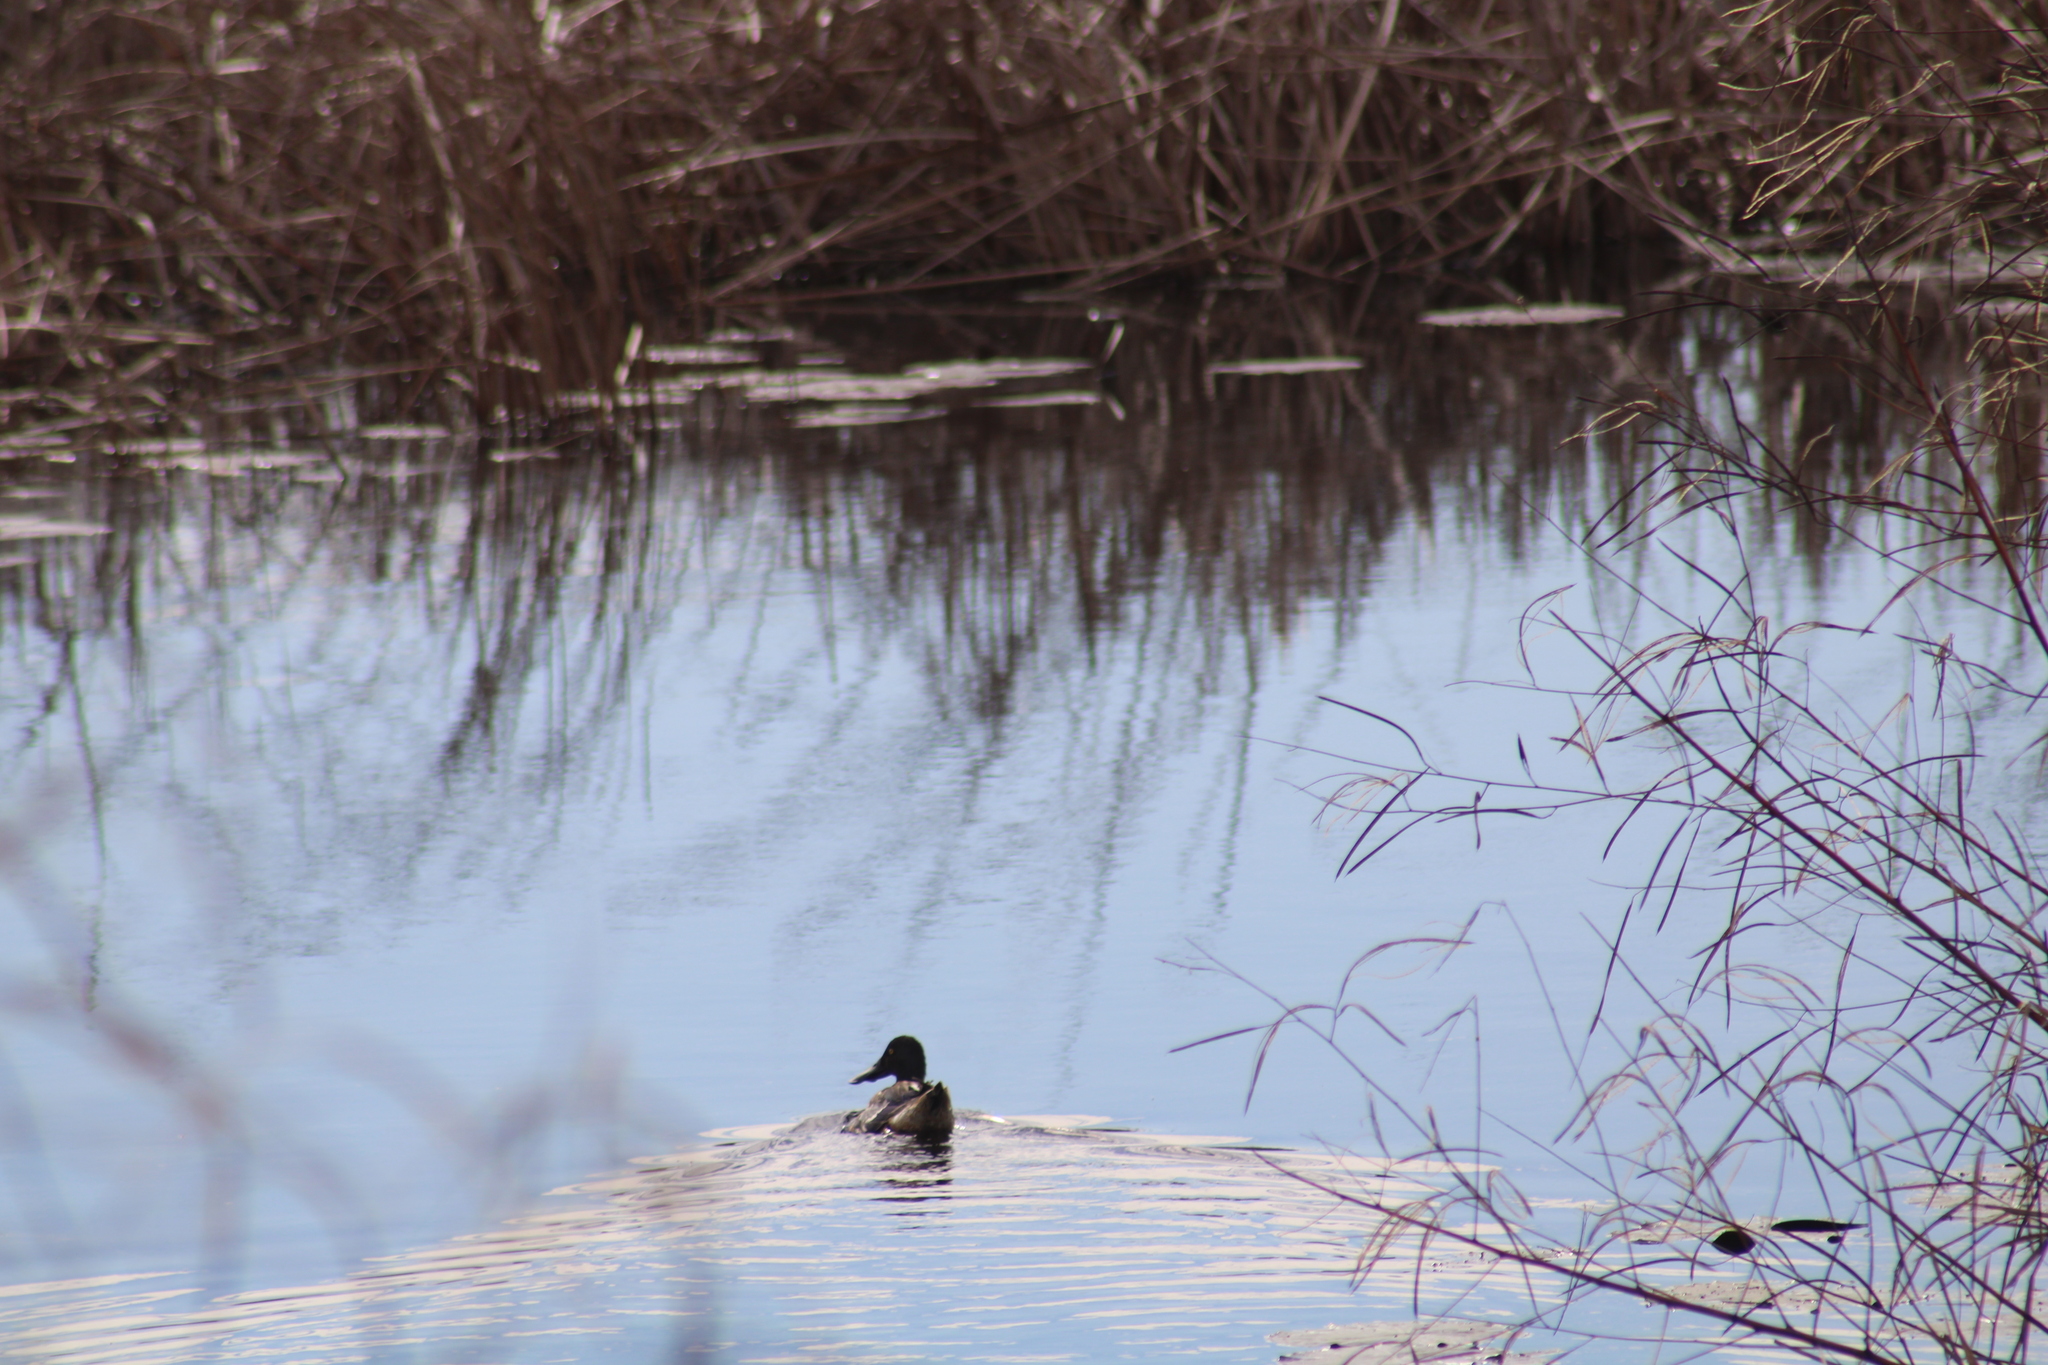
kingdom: Animalia
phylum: Chordata
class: Aves
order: Anseriformes
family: Anatidae
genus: Spatula
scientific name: Spatula clypeata
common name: Northern shoveler
